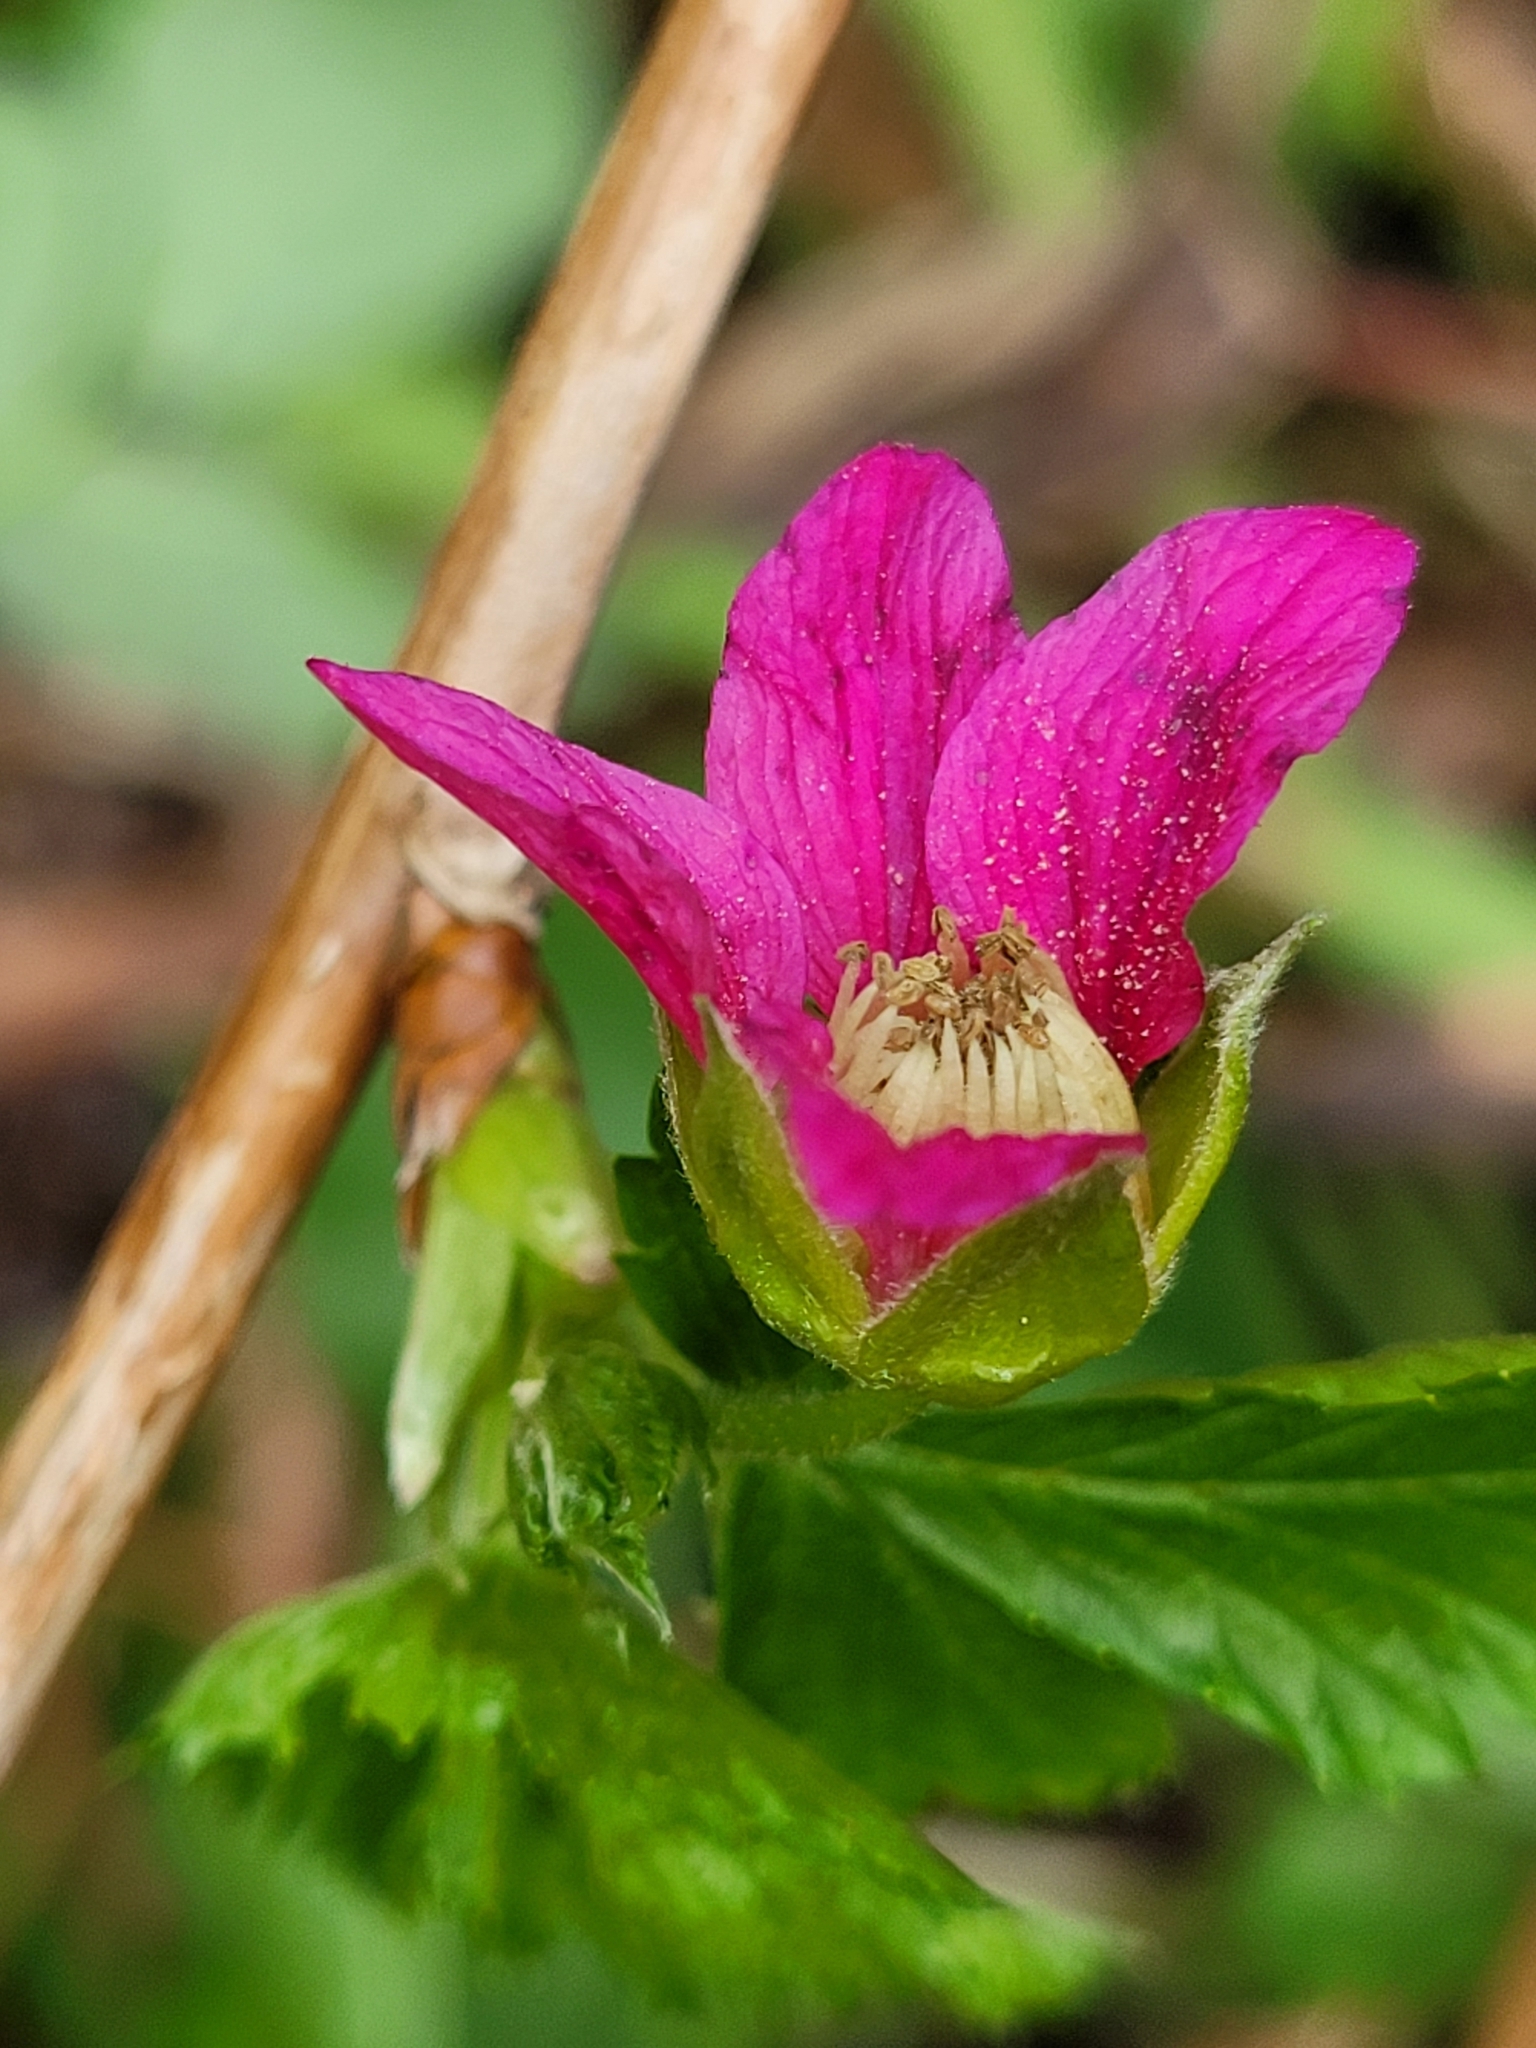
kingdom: Plantae
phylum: Tracheophyta
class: Magnoliopsida
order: Rosales
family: Rosaceae
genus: Rubus
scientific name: Rubus spectabilis
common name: Salmonberry
